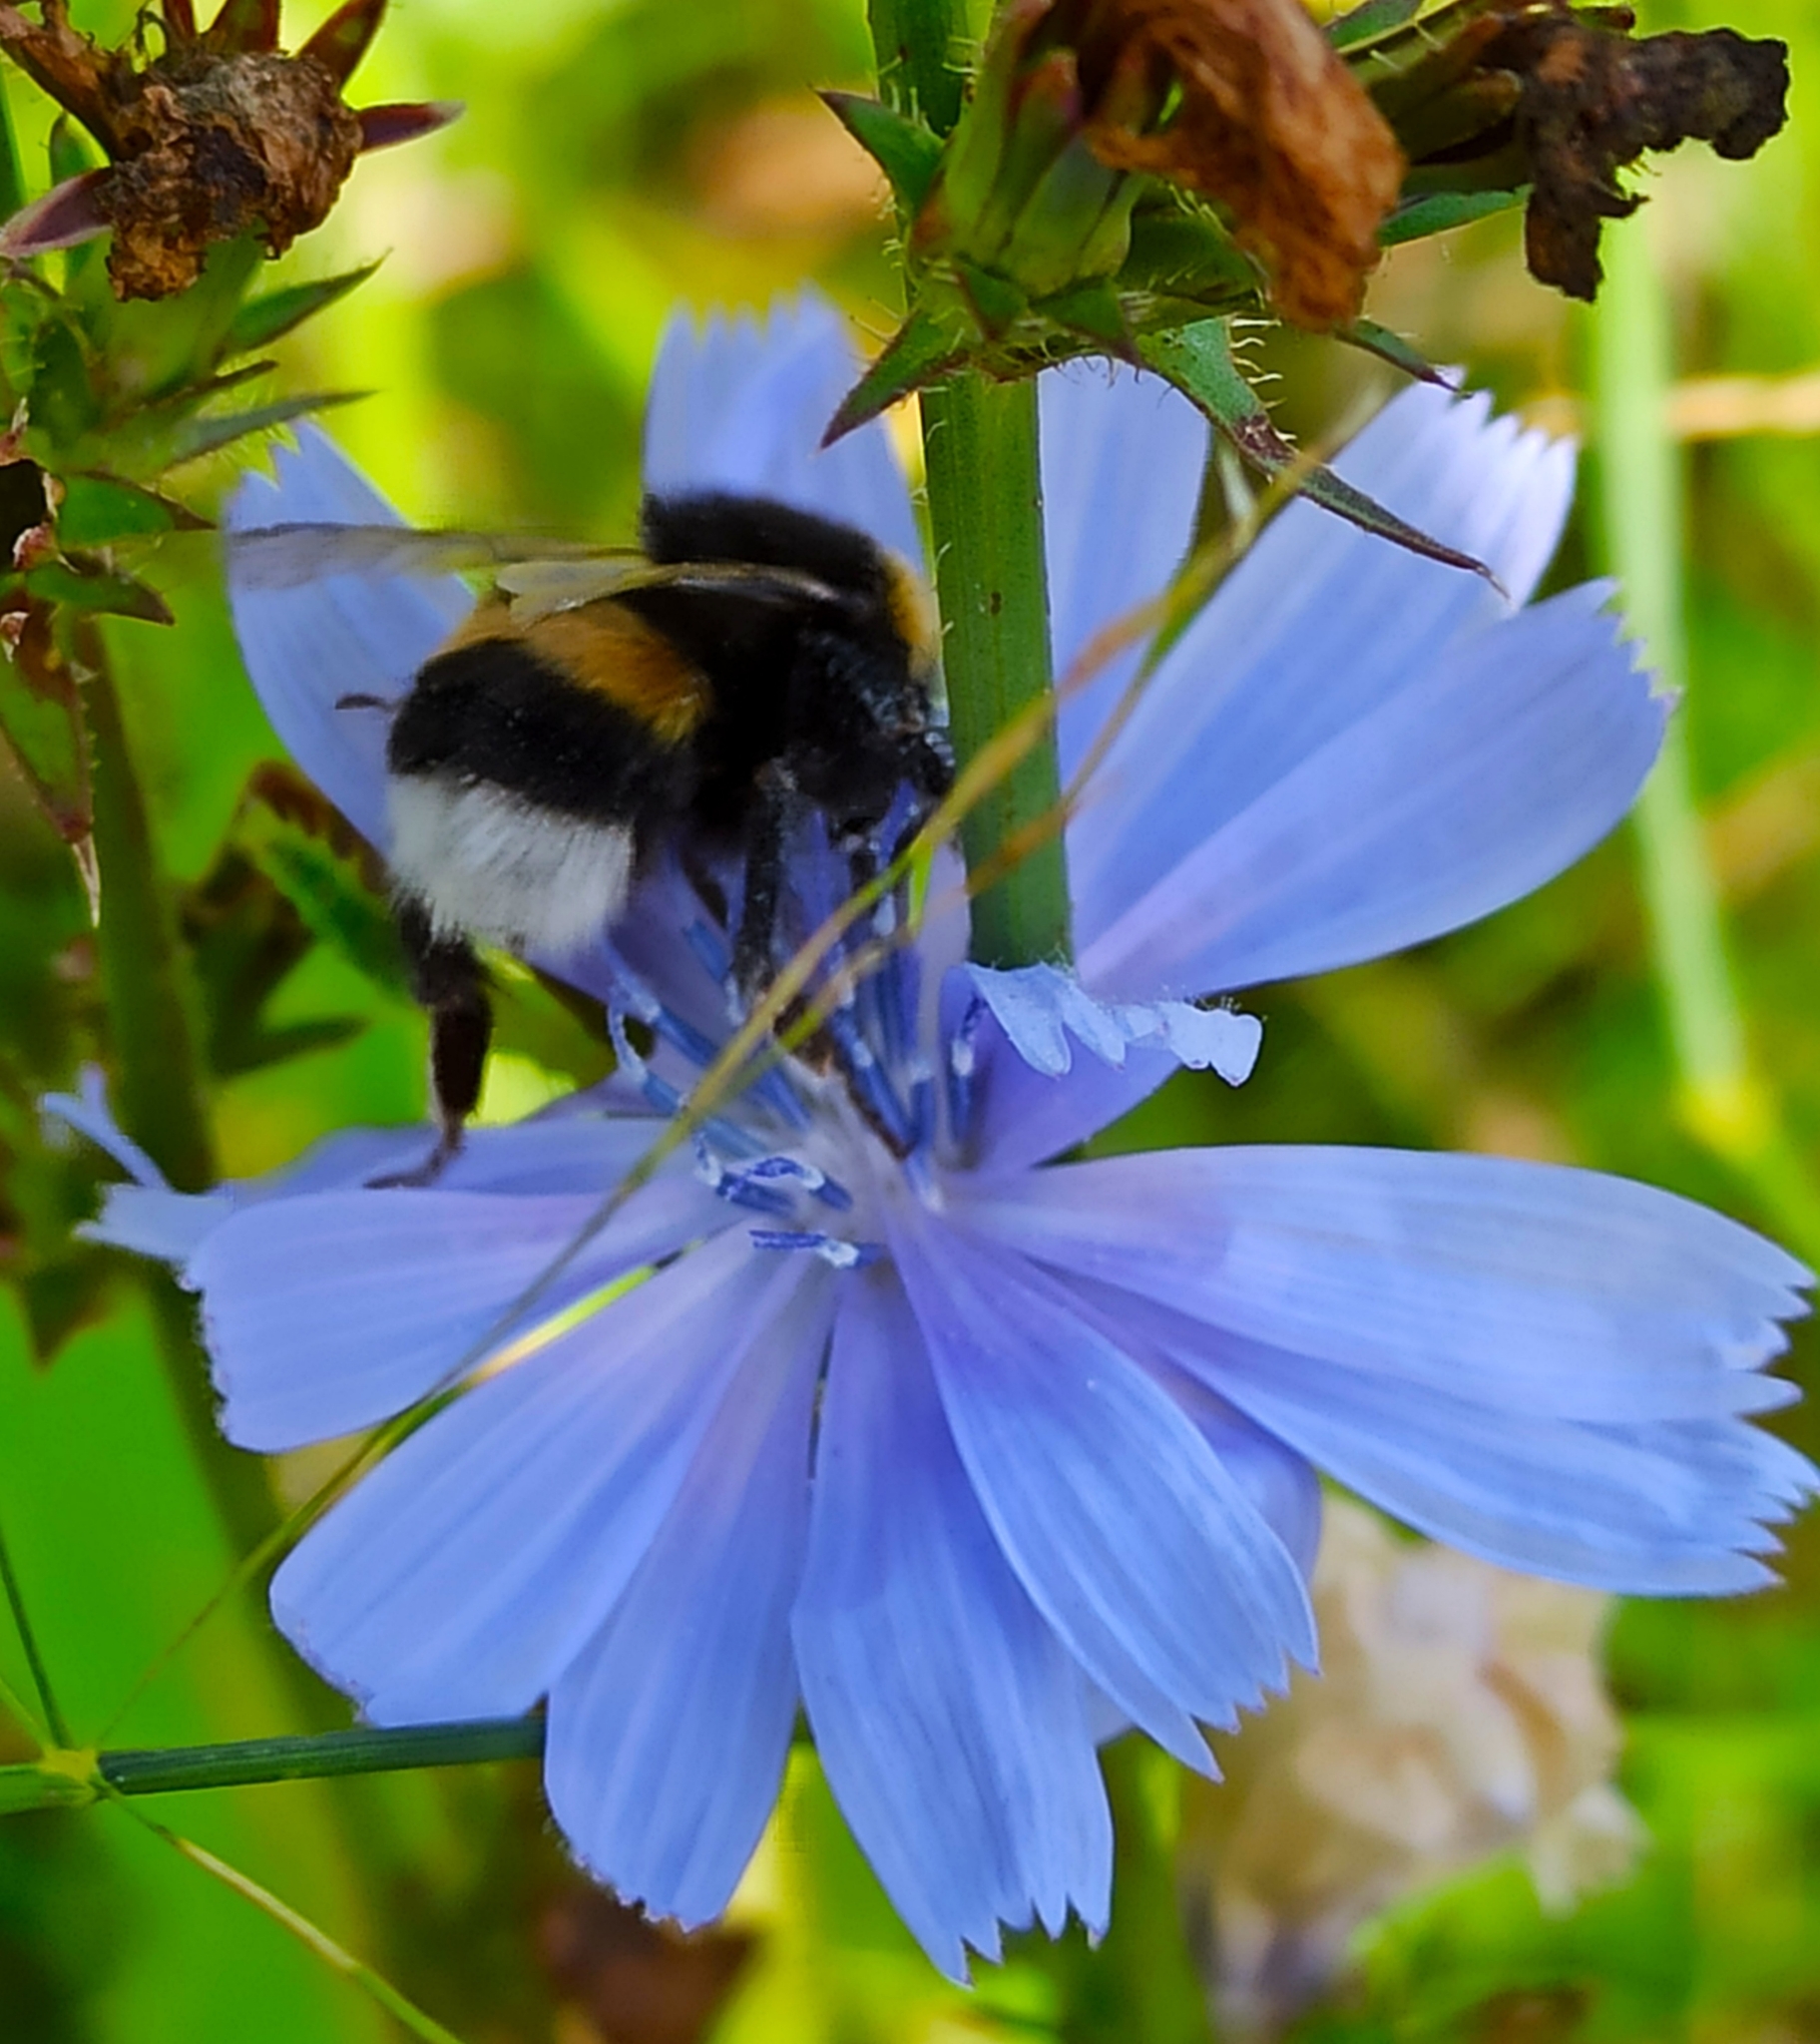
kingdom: Animalia
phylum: Arthropoda
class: Insecta
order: Hymenoptera
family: Apidae
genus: Bombus
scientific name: Bombus
